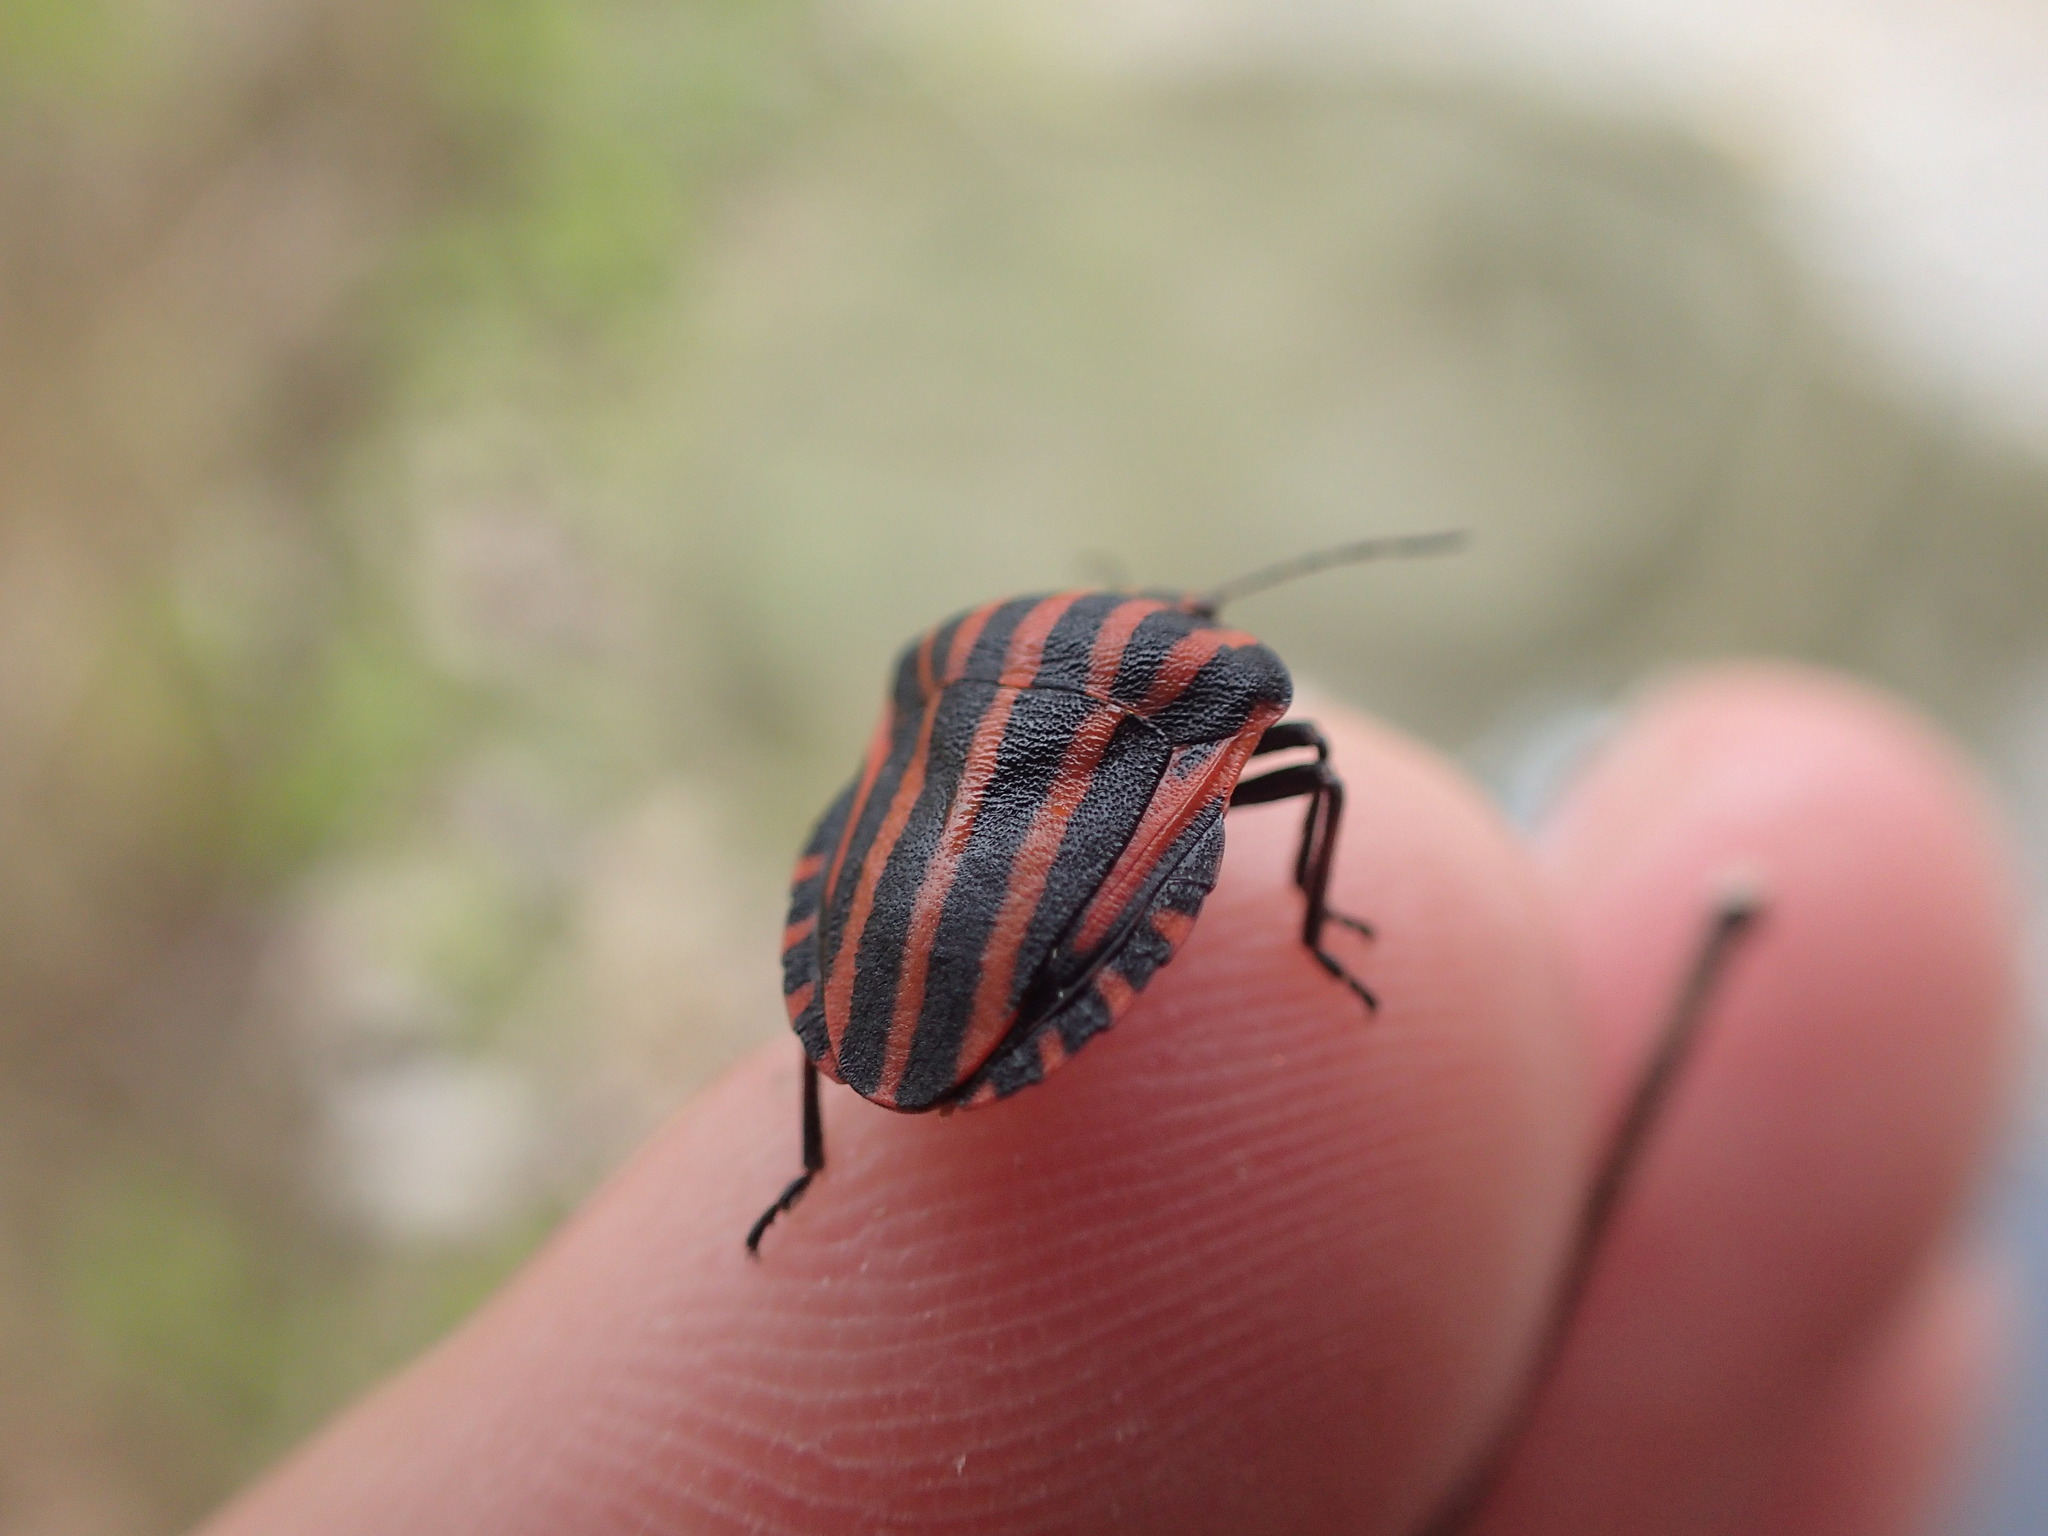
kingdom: Animalia
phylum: Arthropoda
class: Insecta
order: Hemiptera
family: Pentatomidae
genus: Graphosoma
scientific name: Graphosoma italicum
